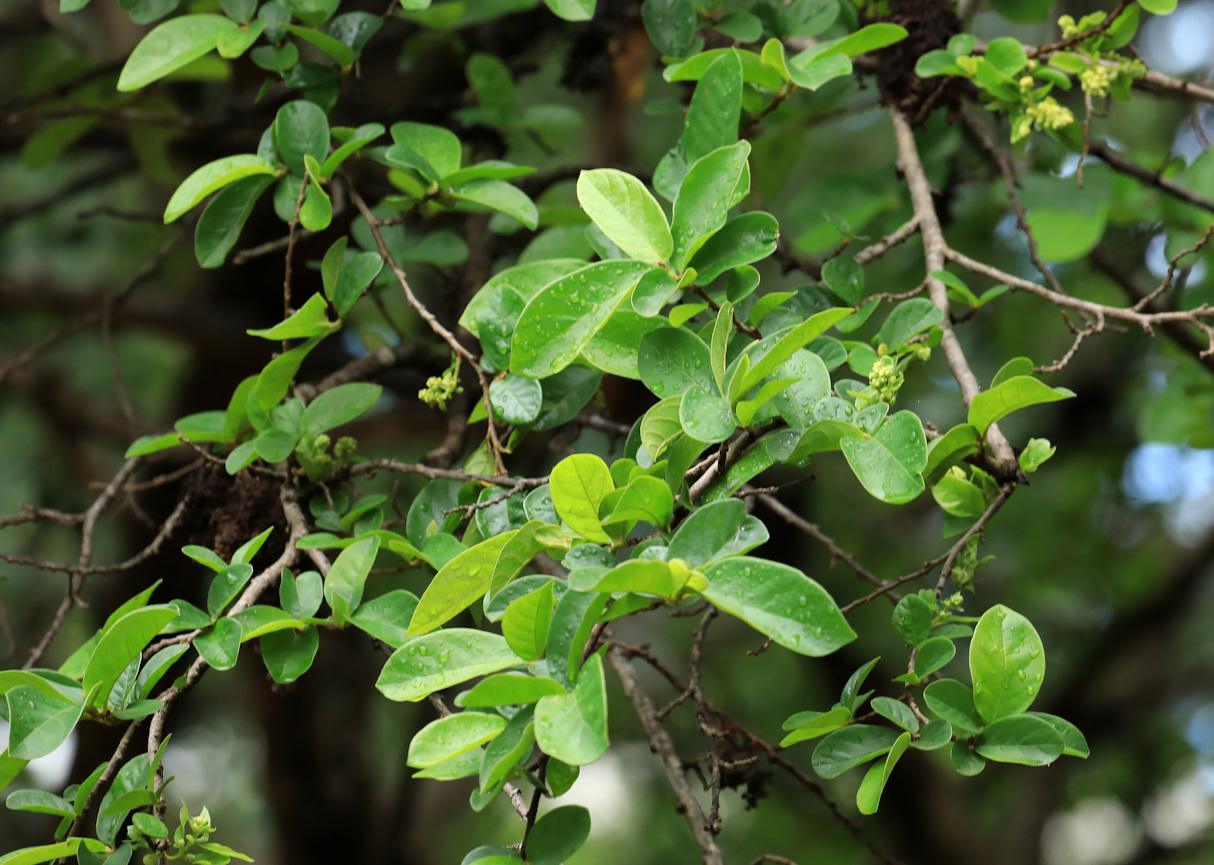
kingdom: Plantae
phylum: Tracheophyta
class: Magnoliopsida
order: Malpighiales
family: Phyllanthaceae
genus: Antidesma
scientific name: Antidesma venosum
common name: Tassel-berry
